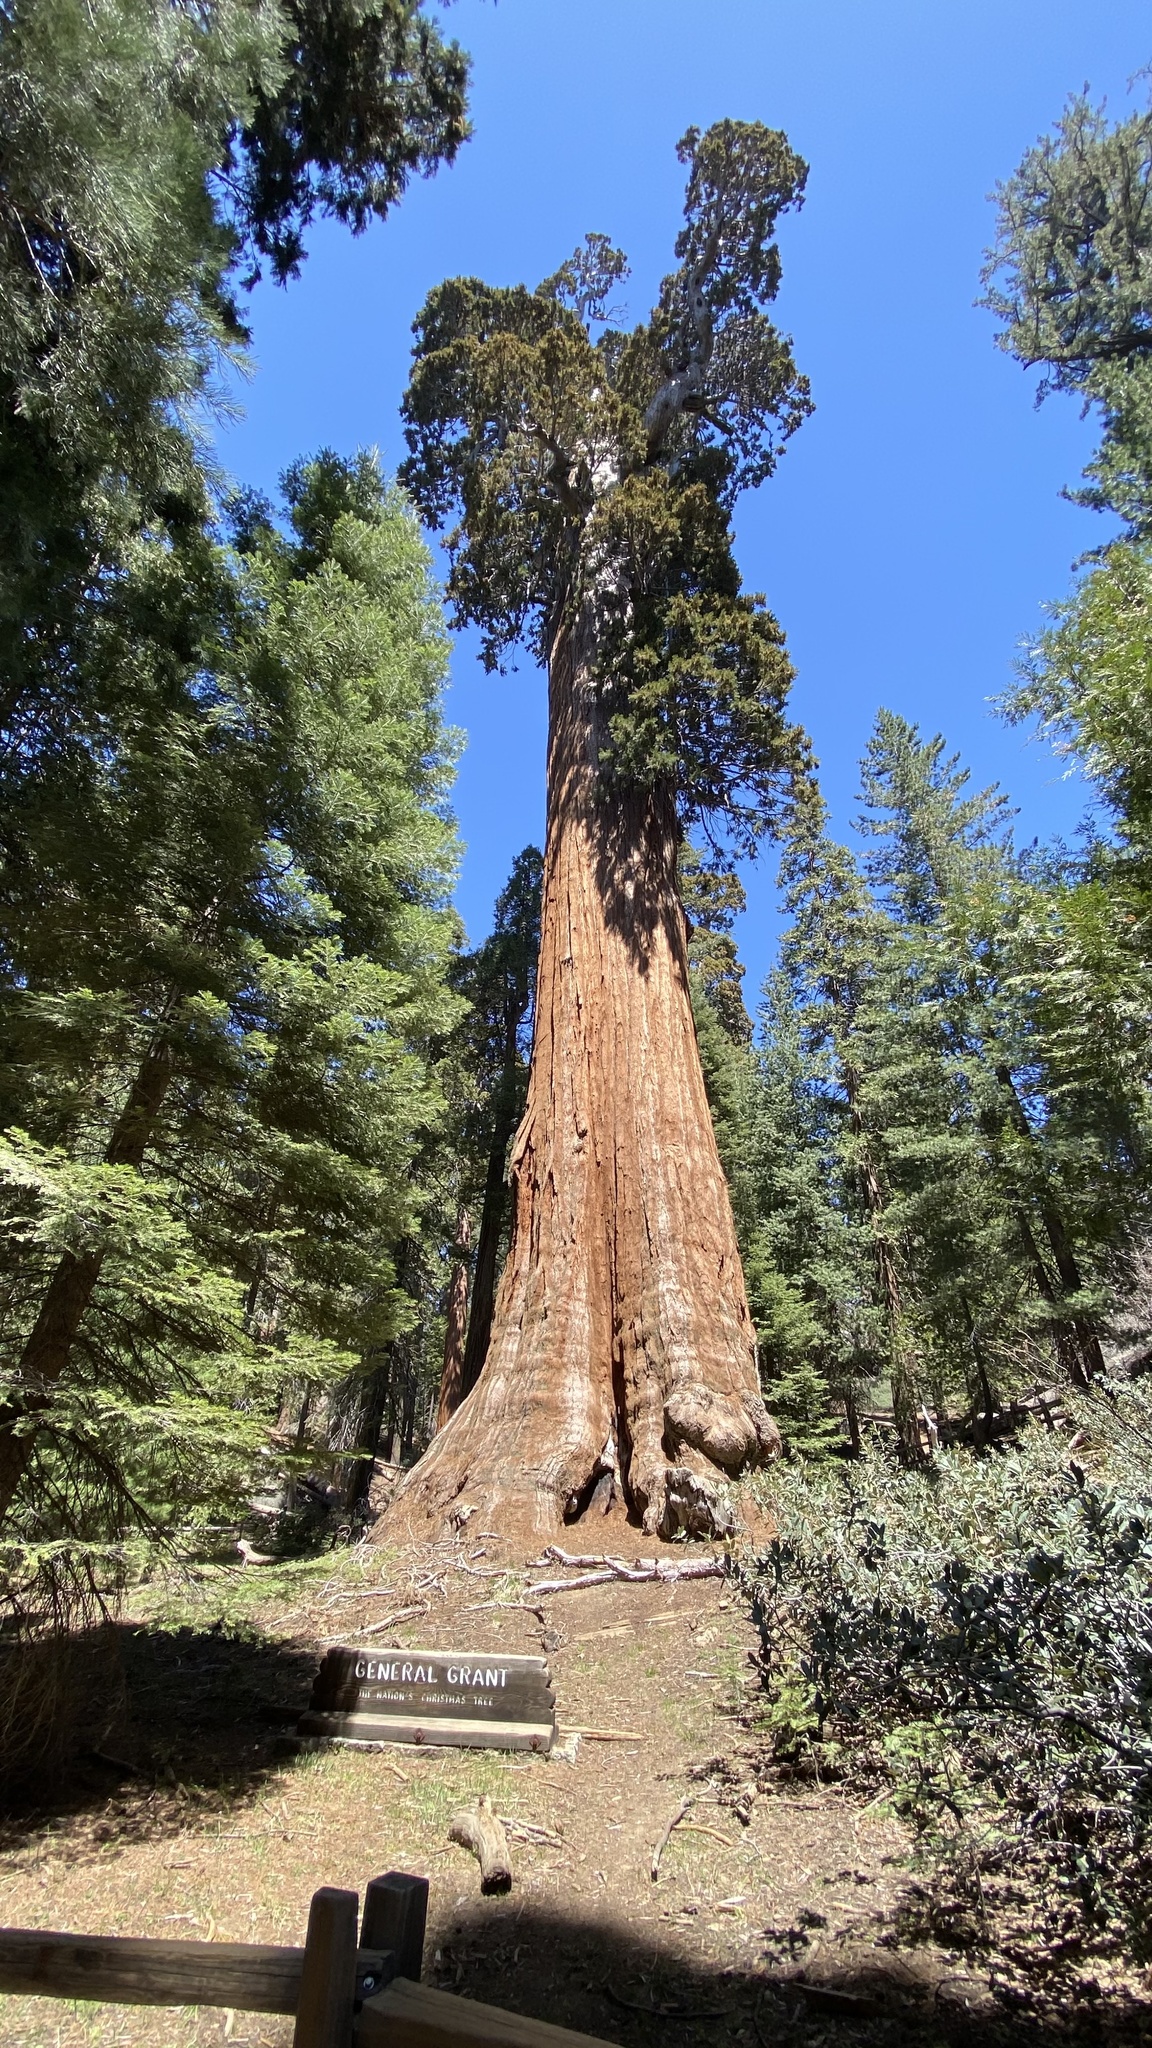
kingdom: Plantae
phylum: Tracheophyta
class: Pinopsida
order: Pinales
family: Cupressaceae
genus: Sequoiadendron
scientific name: Sequoiadendron giganteum
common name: Wellingtonia
